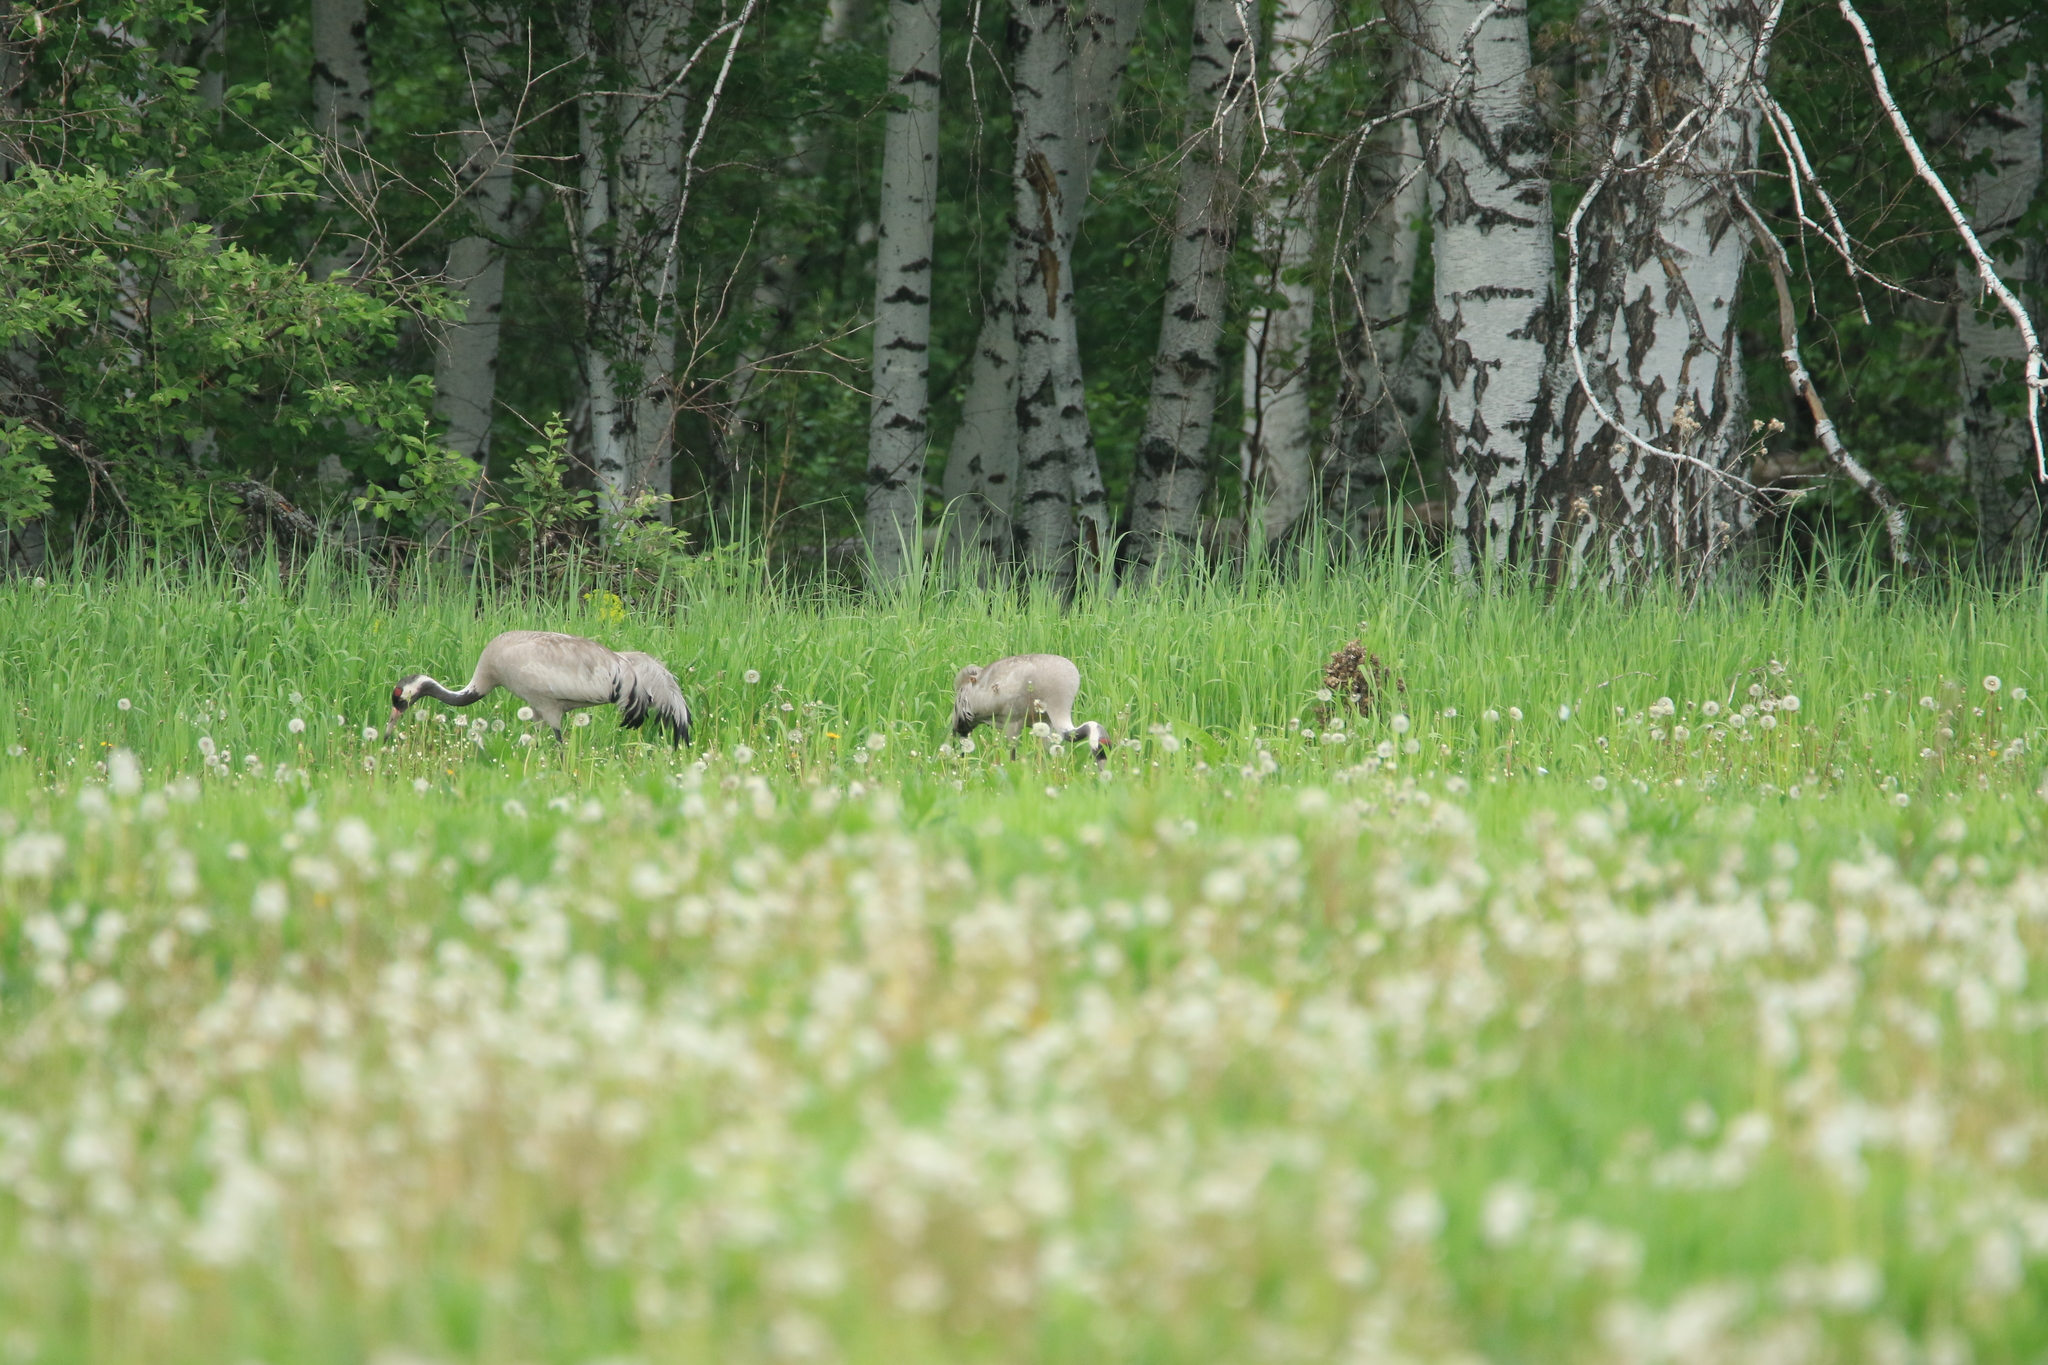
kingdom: Animalia
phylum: Chordata
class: Aves
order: Gruiformes
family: Gruidae
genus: Grus
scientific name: Grus grus
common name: Common crane
